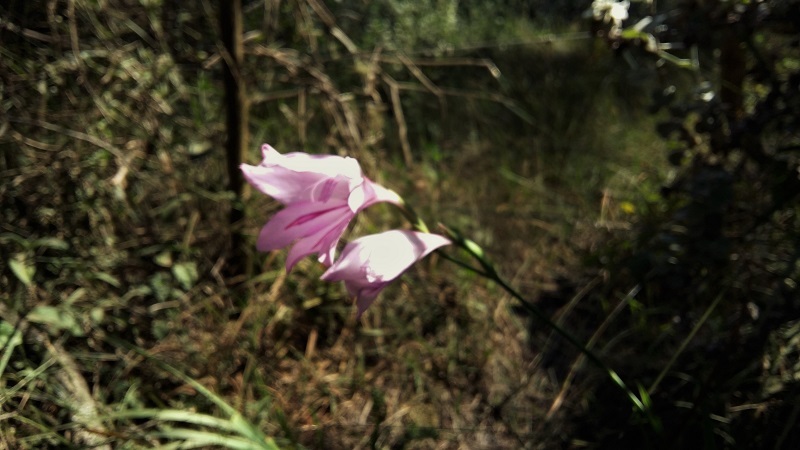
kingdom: Plantae
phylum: Tracheophyta
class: Liliopsida
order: Asparagales
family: Iridaceae
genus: Gladiolus
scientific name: Gladiolus geardii
